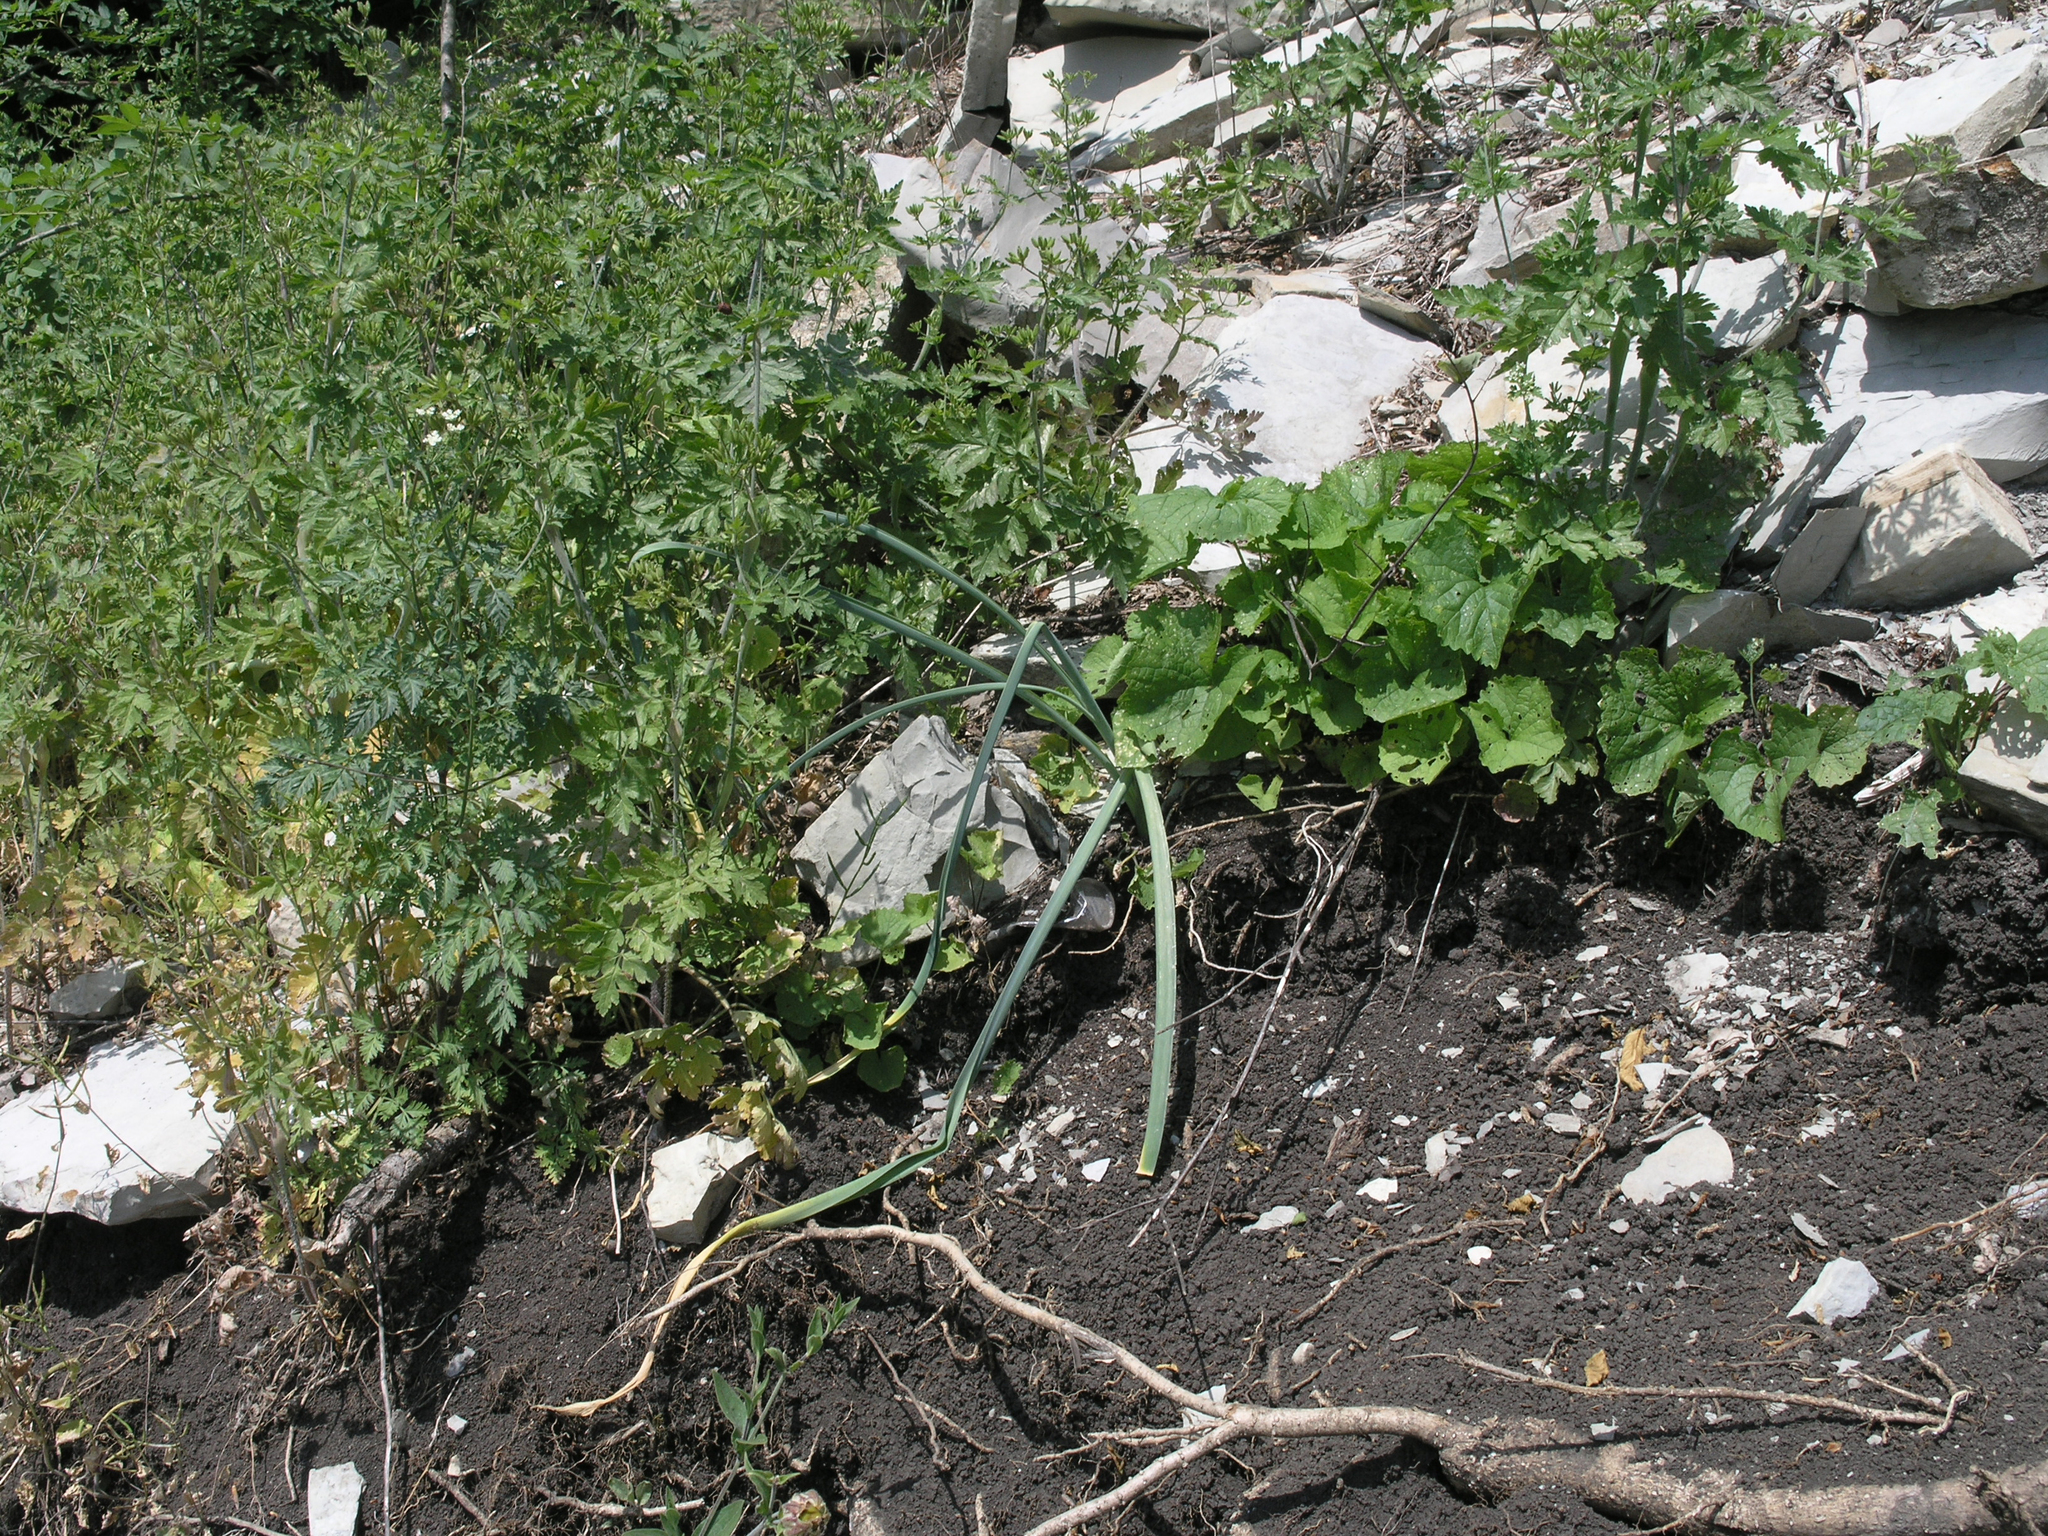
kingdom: Plantae
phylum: Tracheophyta
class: Magnoliopsida
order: Brassicales
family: Brassicaceae
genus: Alliaria
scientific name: Alliaria petiolata
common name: Garlic mustard
